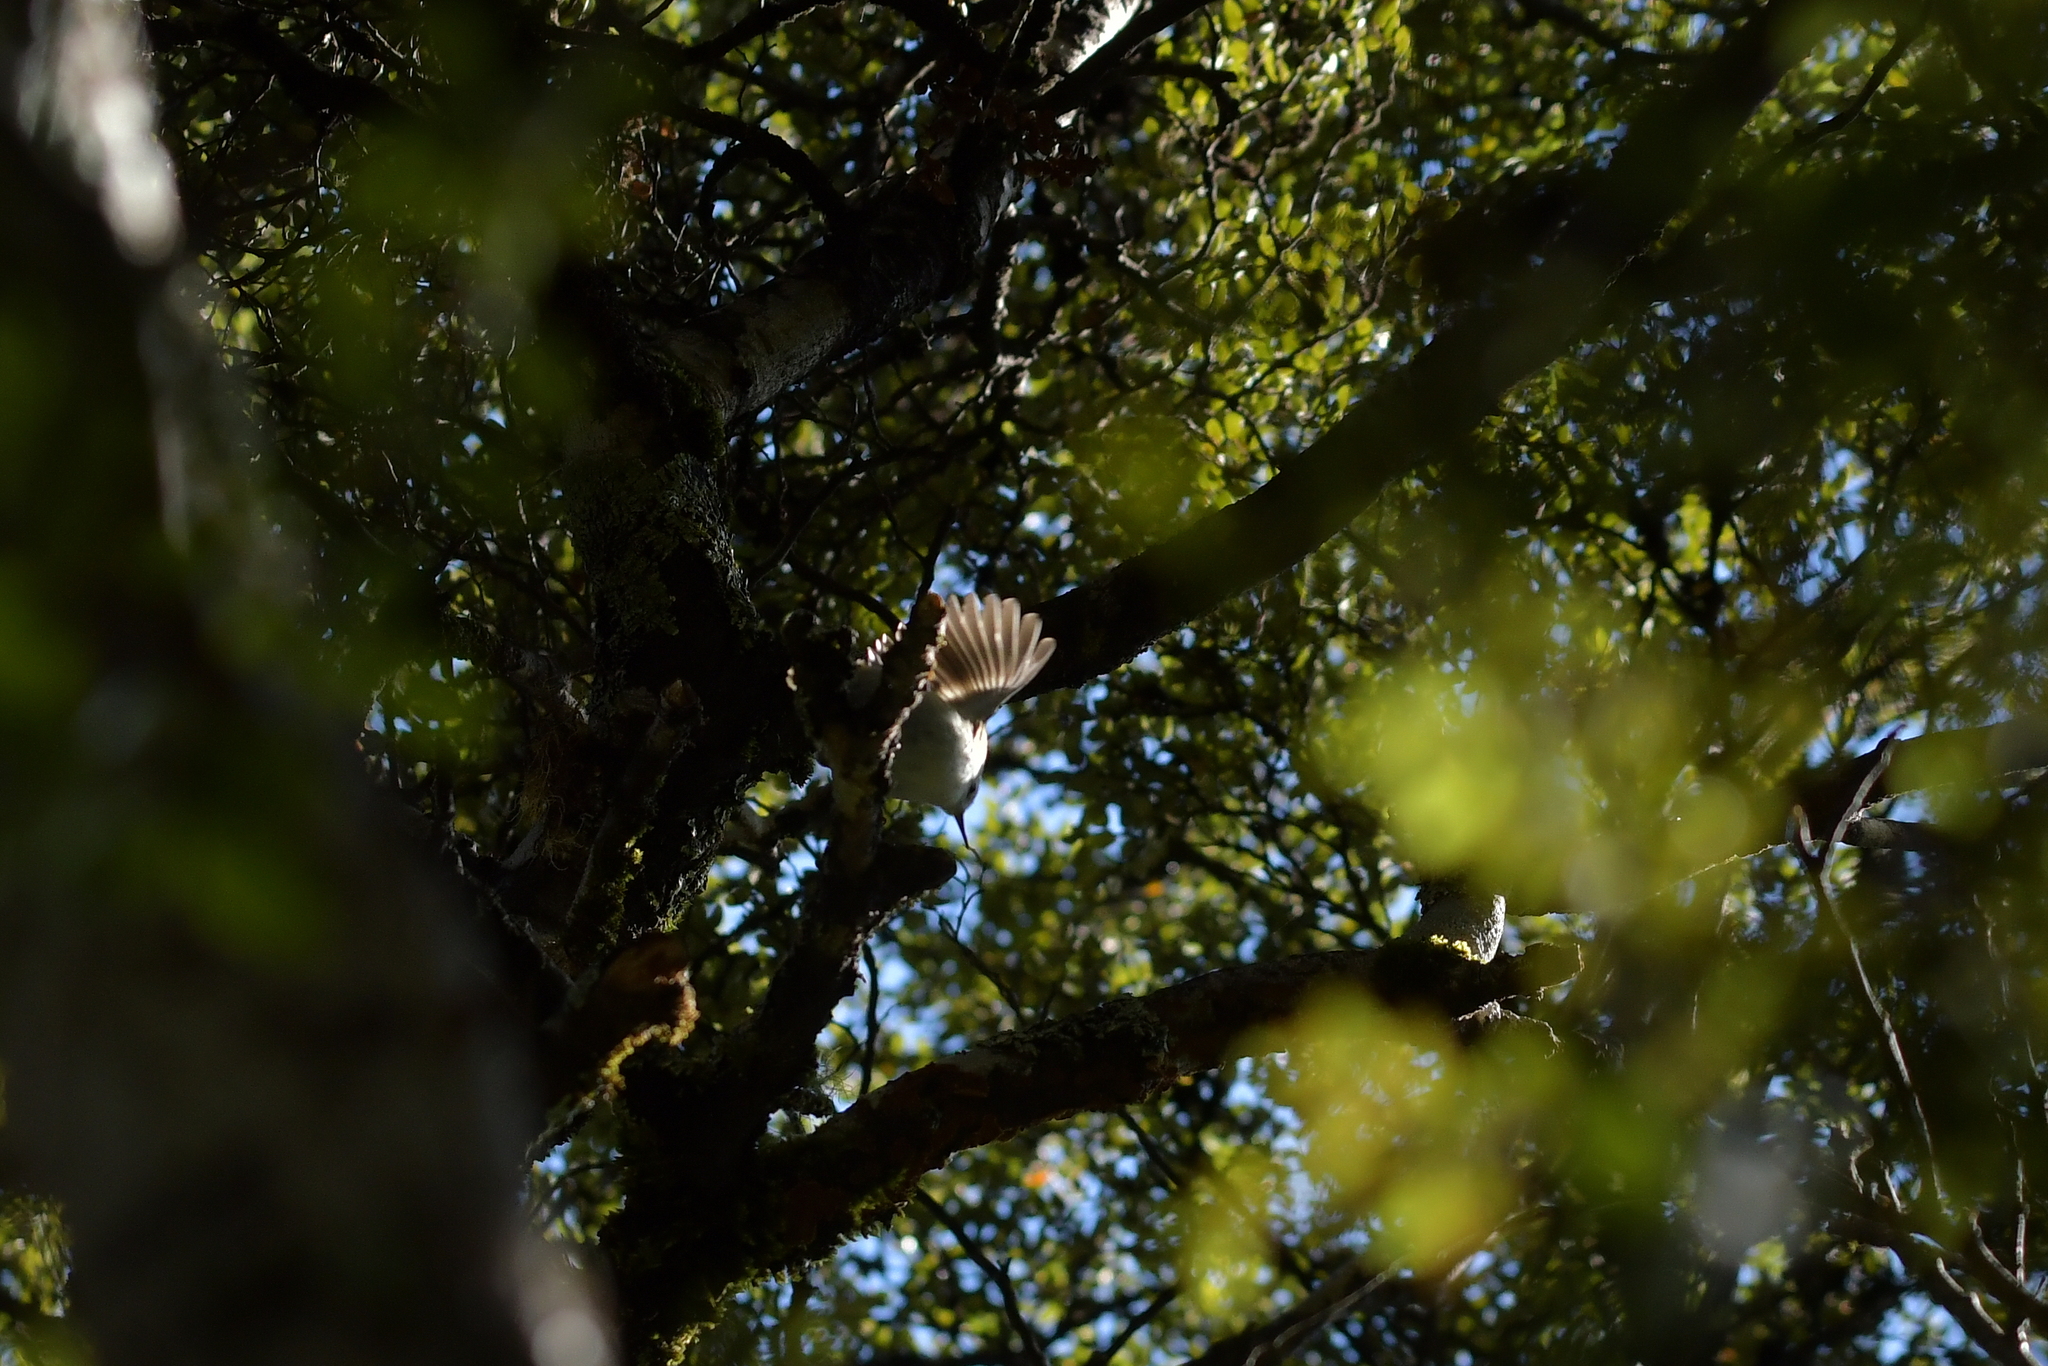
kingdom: Animalia
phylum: Chordata
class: Aves
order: Passeriformes
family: Acanthisittidae
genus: Acanthisitta
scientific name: Acanthisitta chloris
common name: Rifleman
